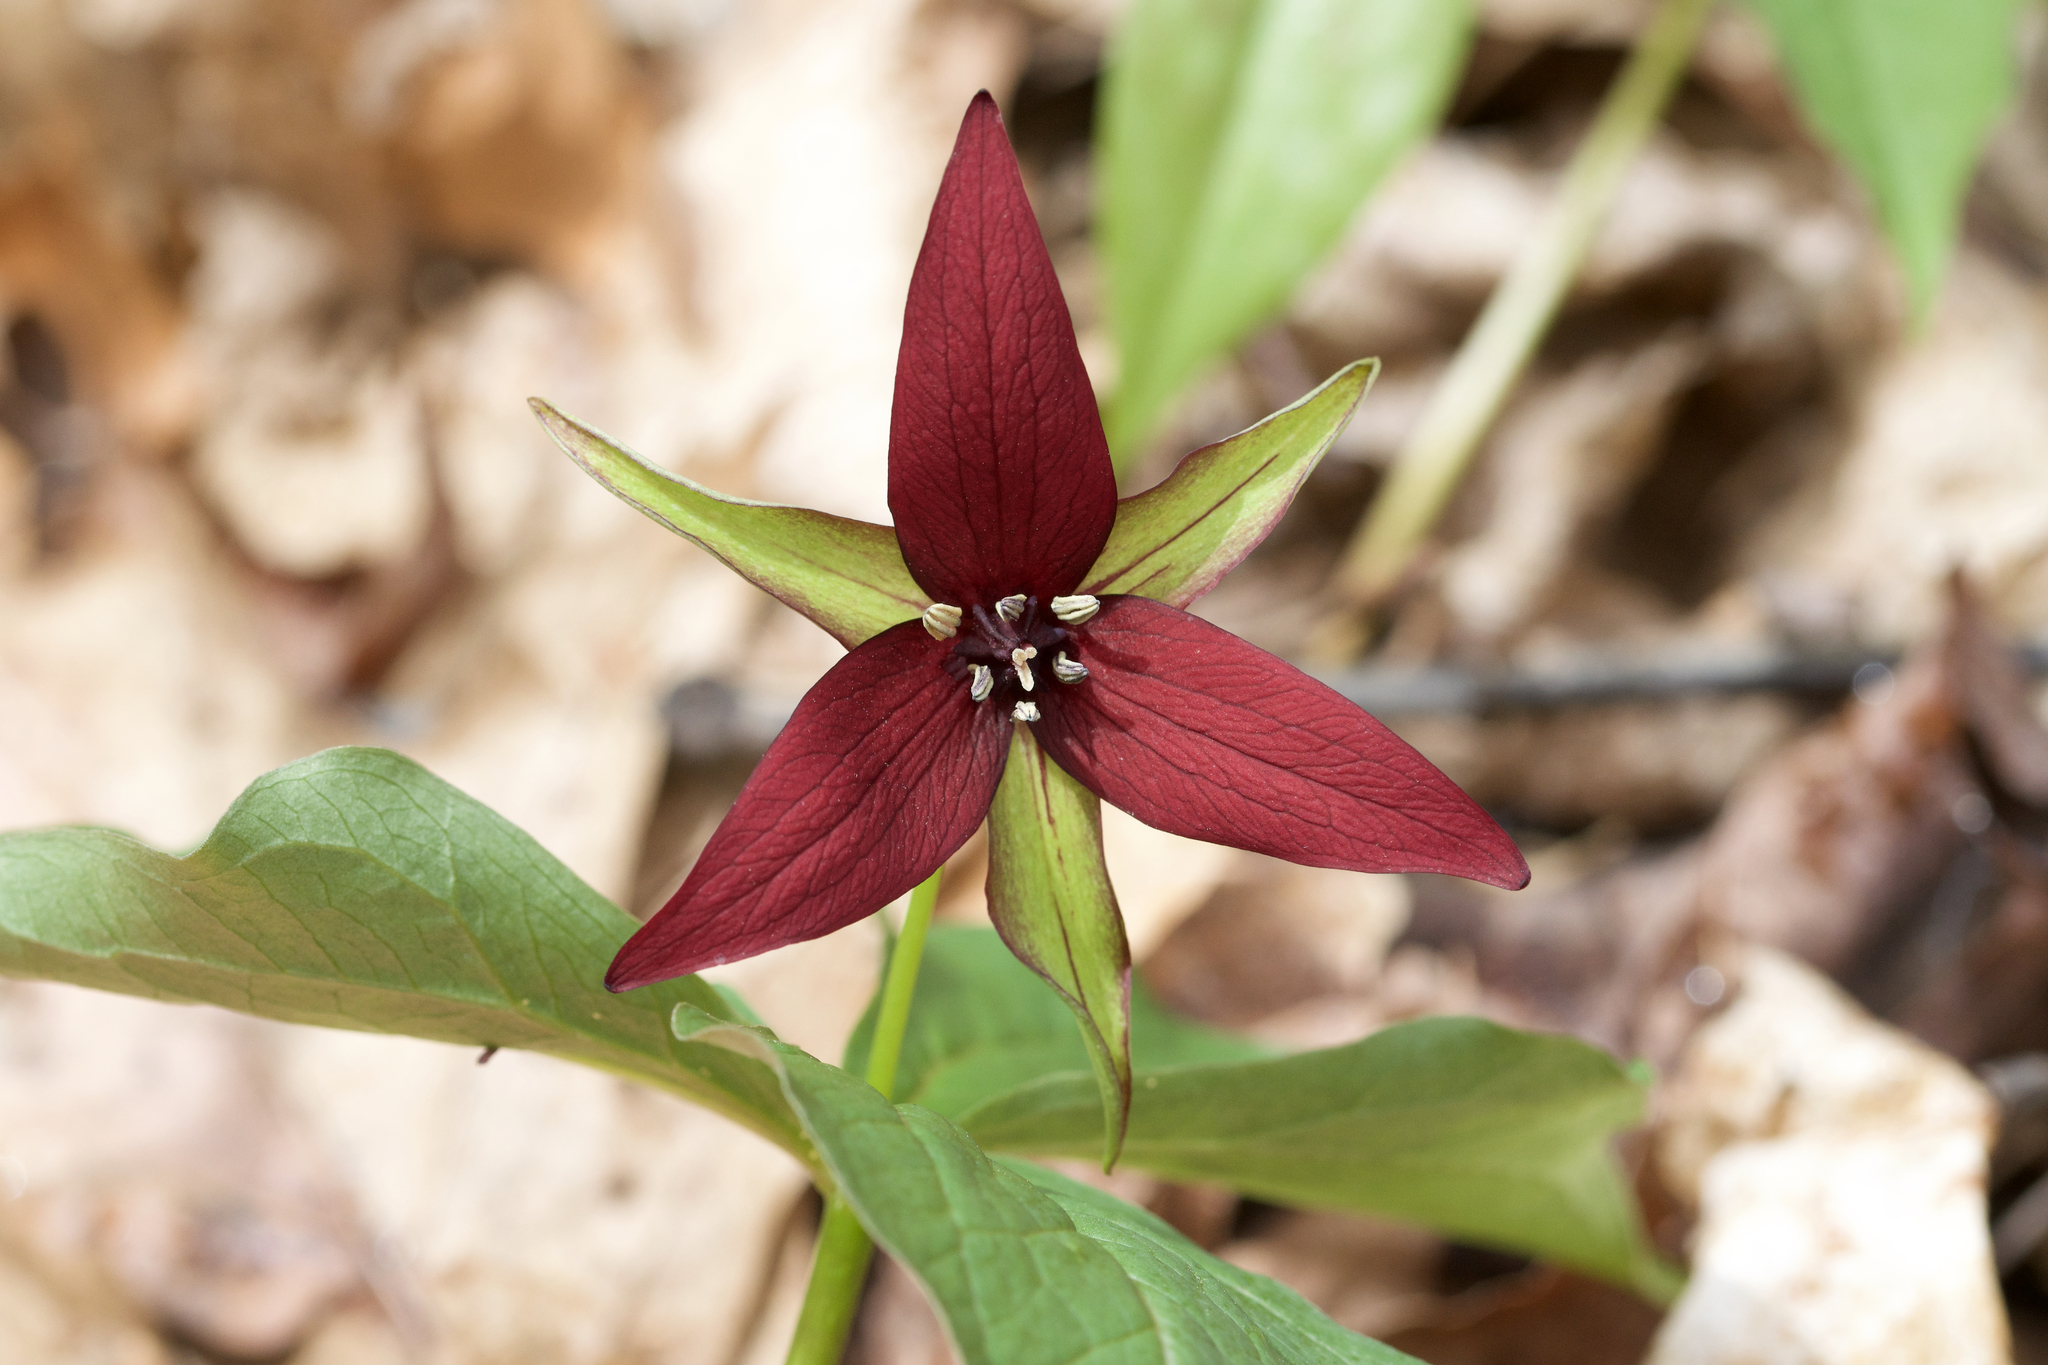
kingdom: Plantae
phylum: Tracheophyta
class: Liliopsida
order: Liliales
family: Melanthiaceae
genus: Trillium
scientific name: Trillium erectum
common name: Purple trillium
